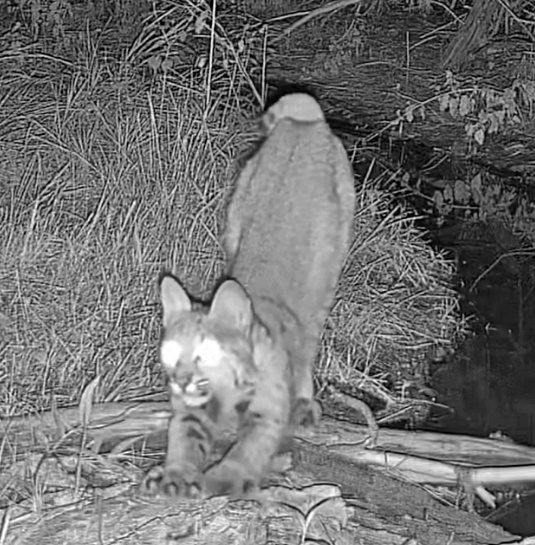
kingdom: Animalia
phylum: Chordata
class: Mammalia
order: Carnivora
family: Felidae
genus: Lynx
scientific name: Lynx rufus
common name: Bobcat
